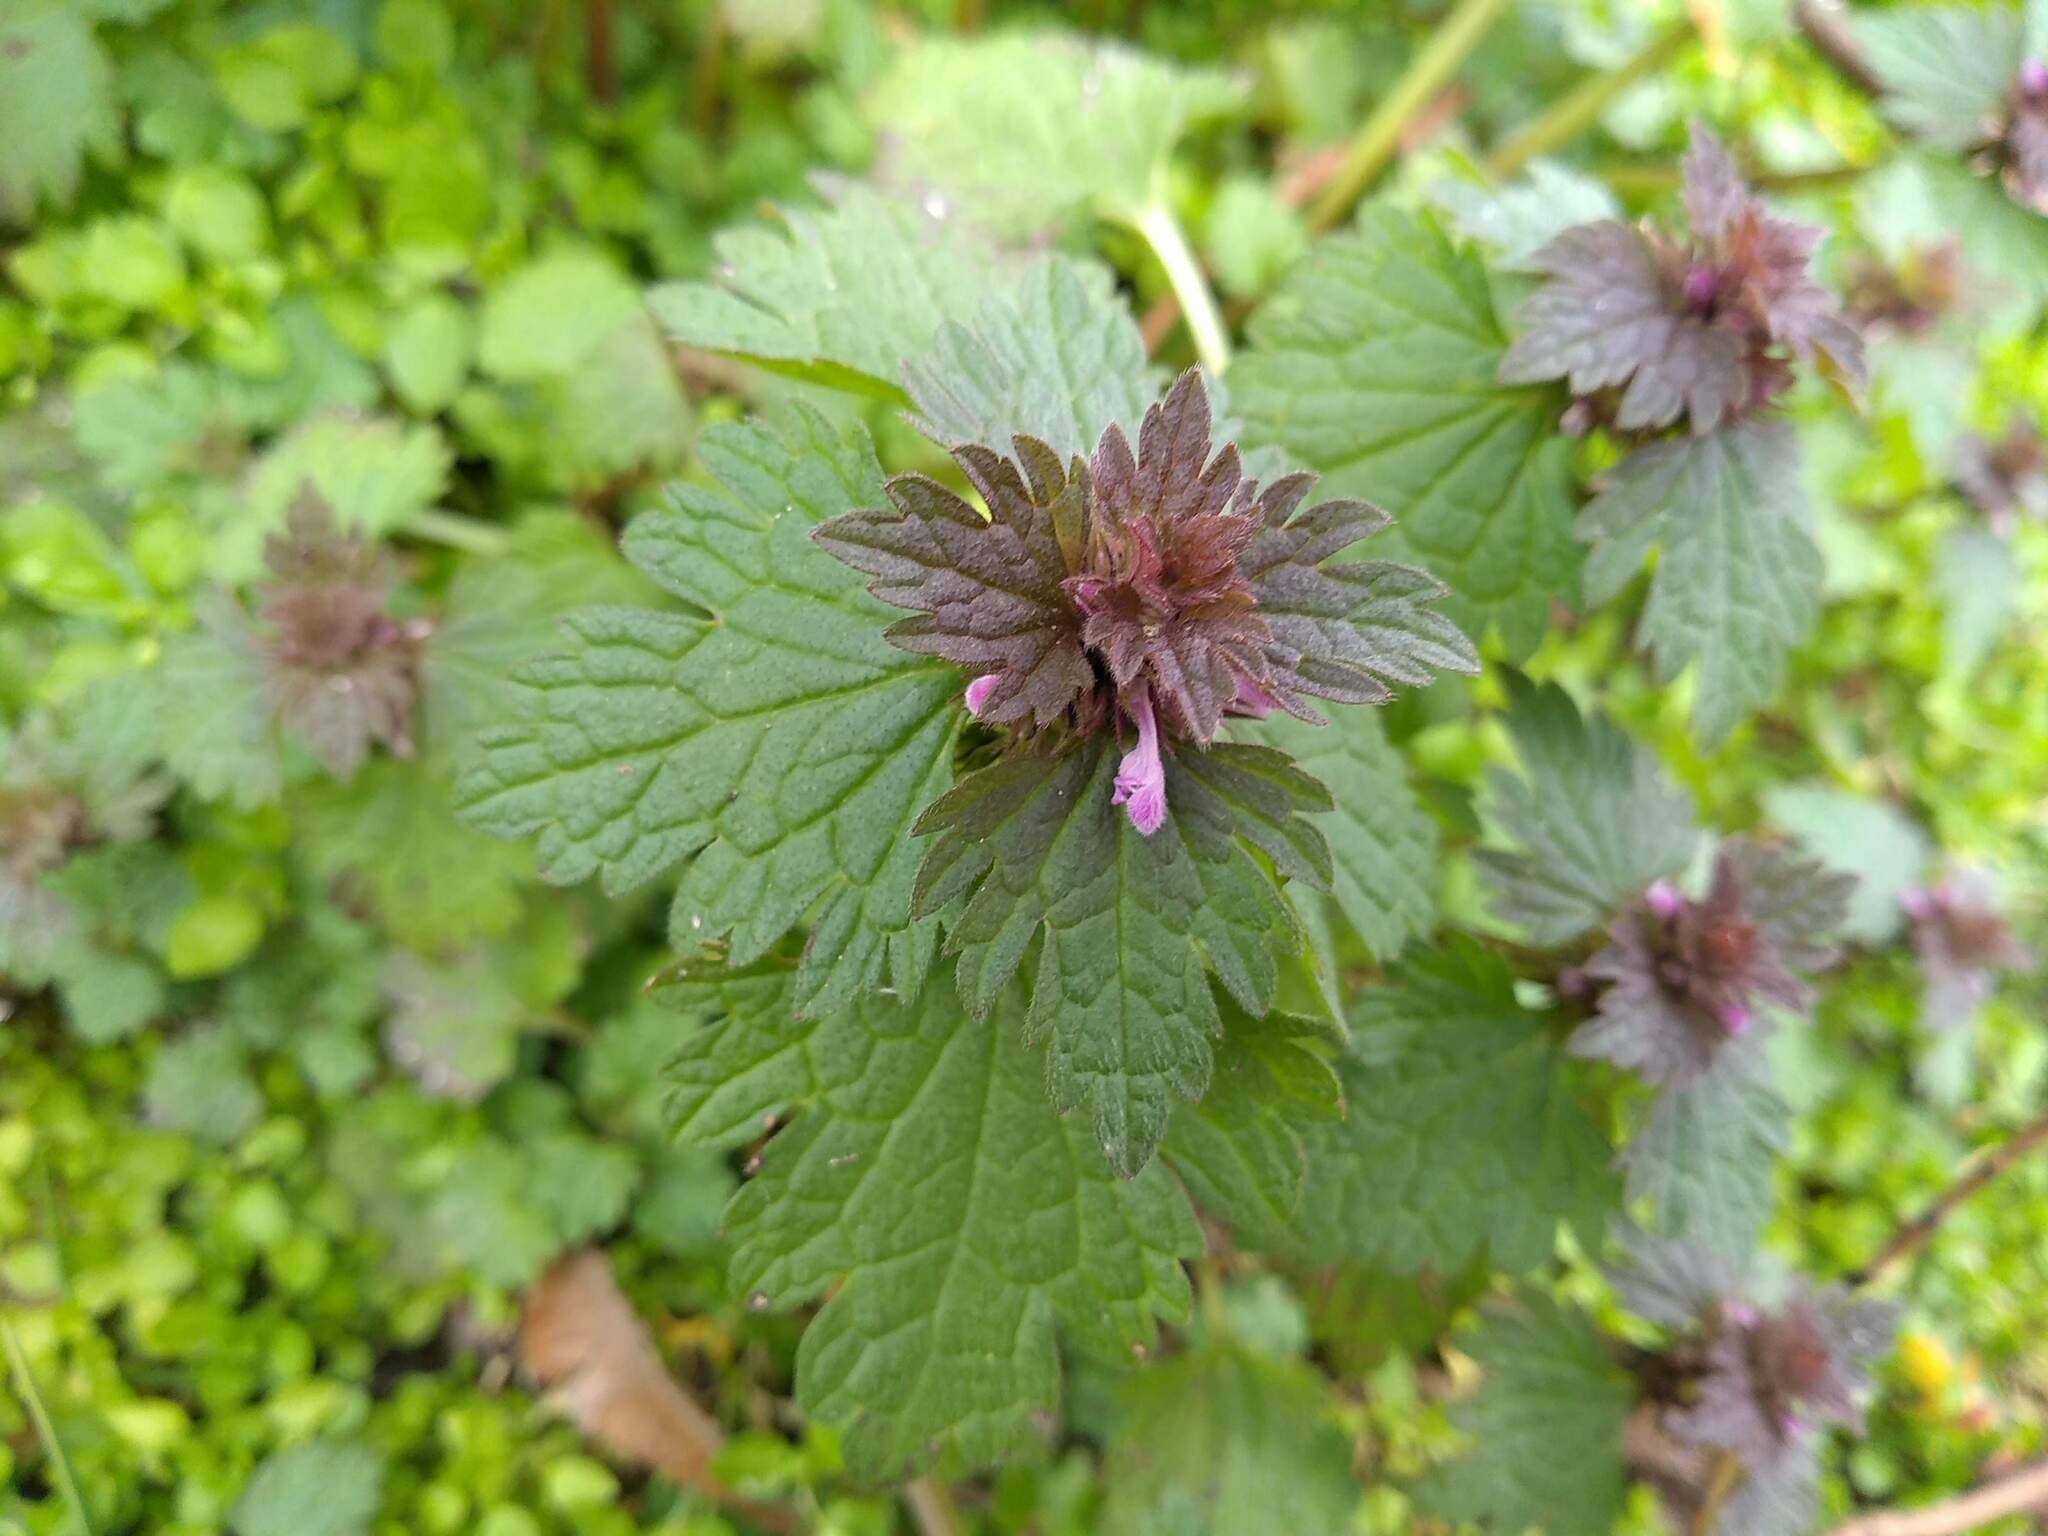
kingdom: Plantae
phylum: Tracheophyta
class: Magnoliopsida
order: Lamiales
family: Lamiaceae
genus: Lamium
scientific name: Lamium hybridum
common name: Cut-leaved dead-nettle
